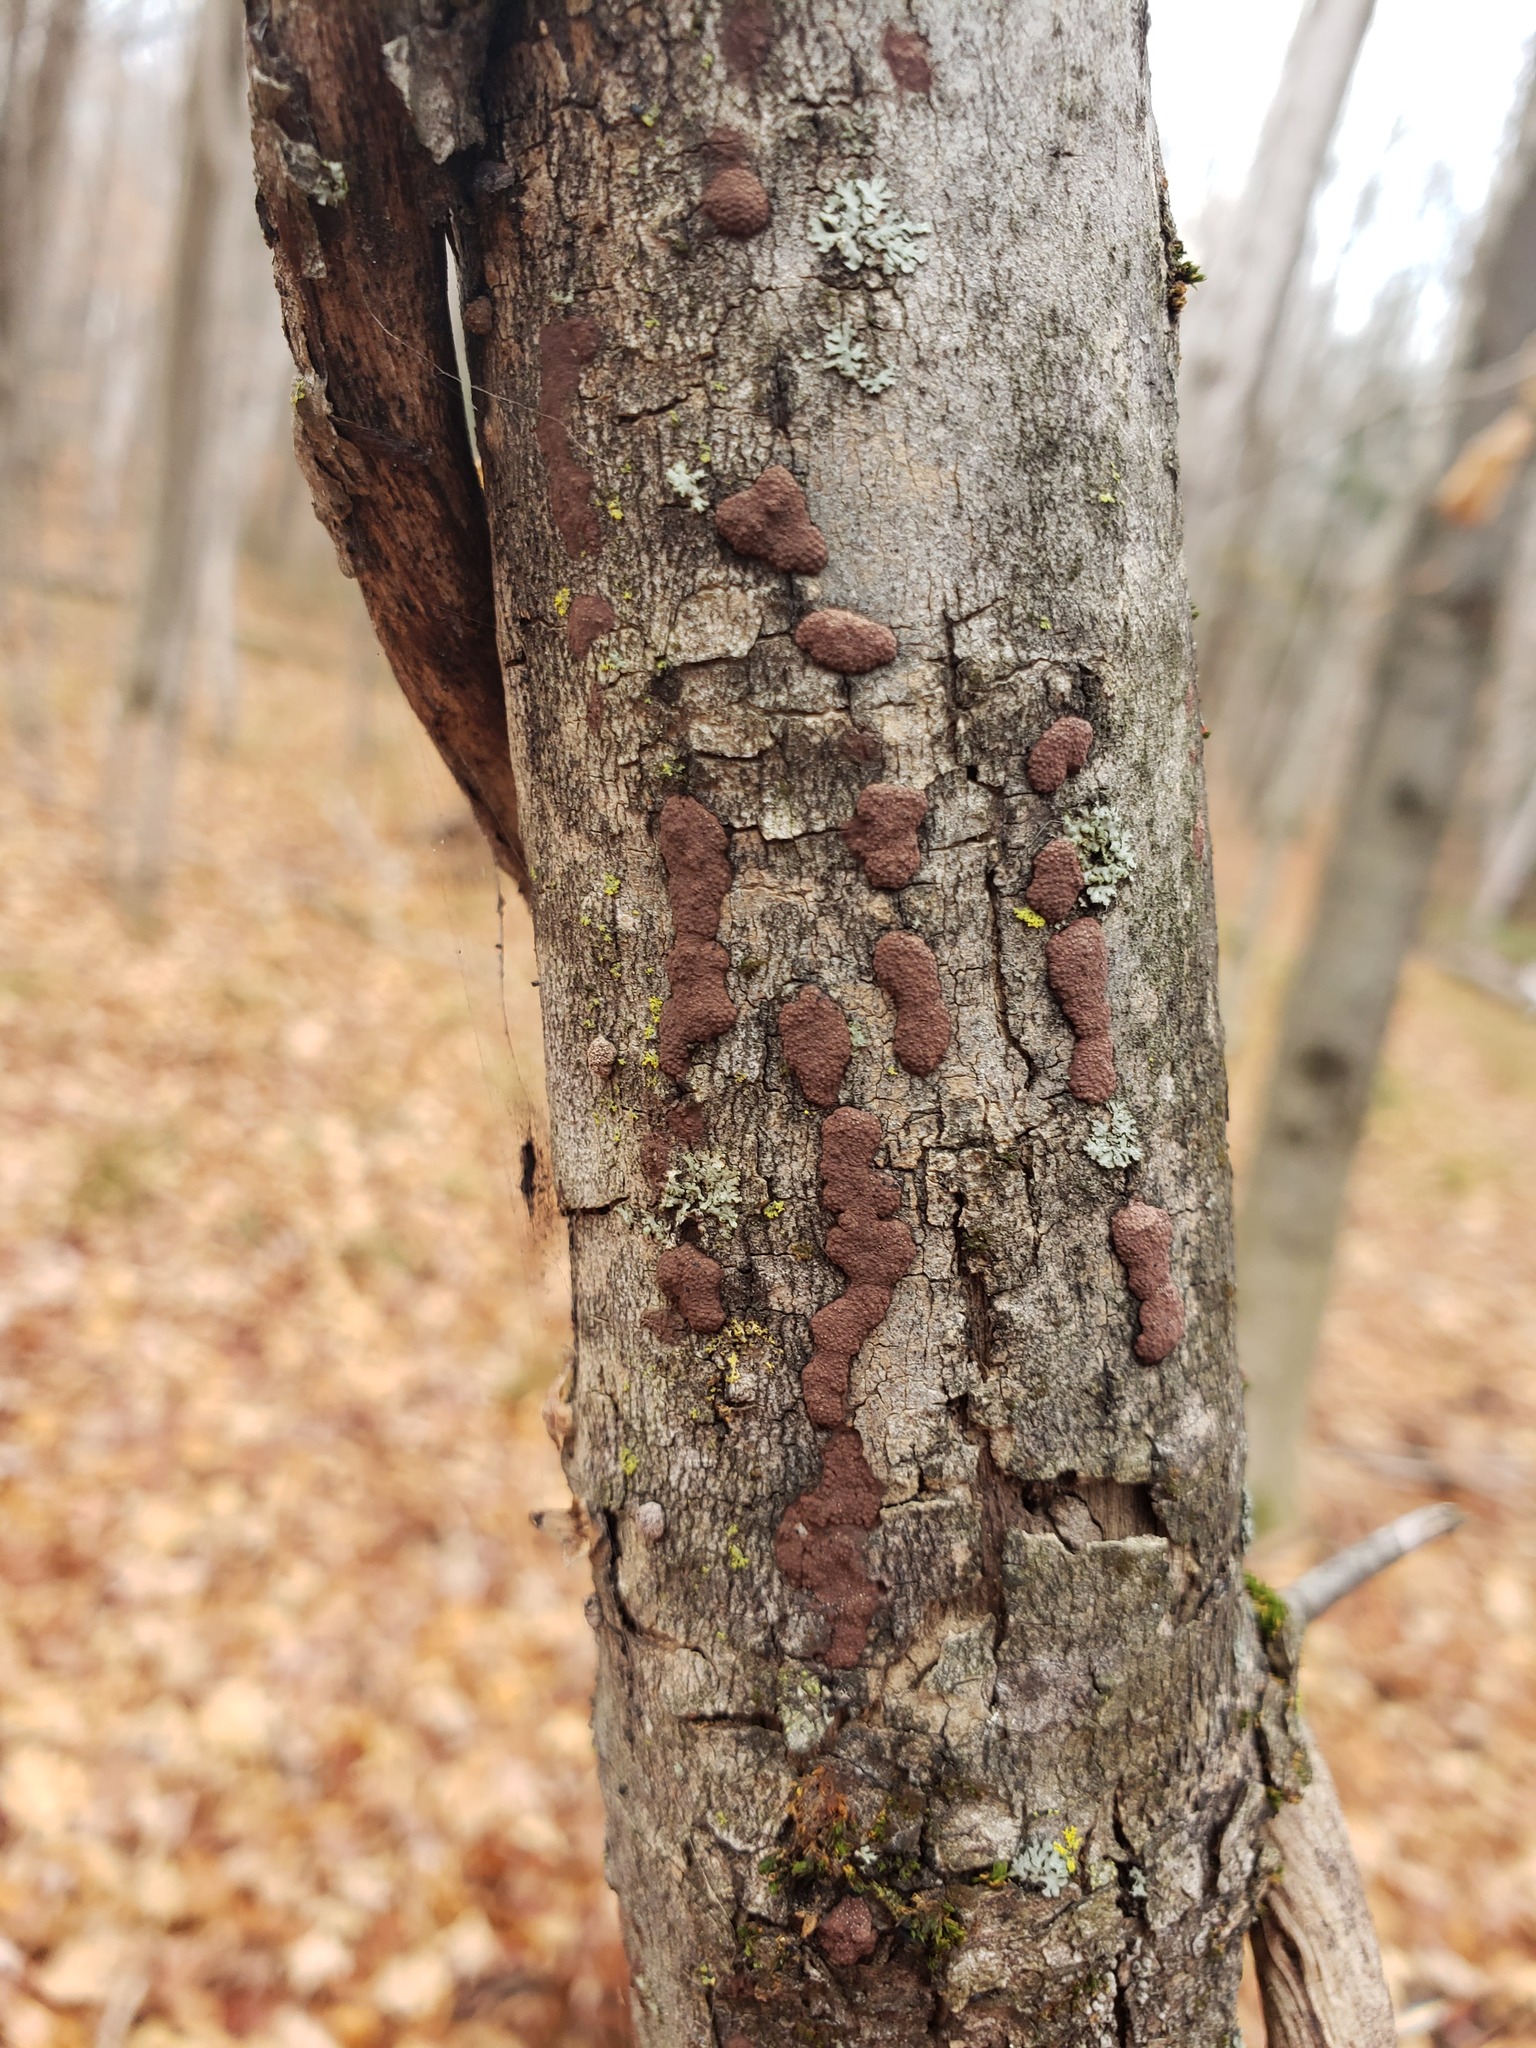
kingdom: Fungi
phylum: Ascomycota
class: Sordariomycetes
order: Xylariales
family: Hypoxylaceae
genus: Hypoxylon
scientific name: Hypoxylon fuscum
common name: Hazel woodwart
